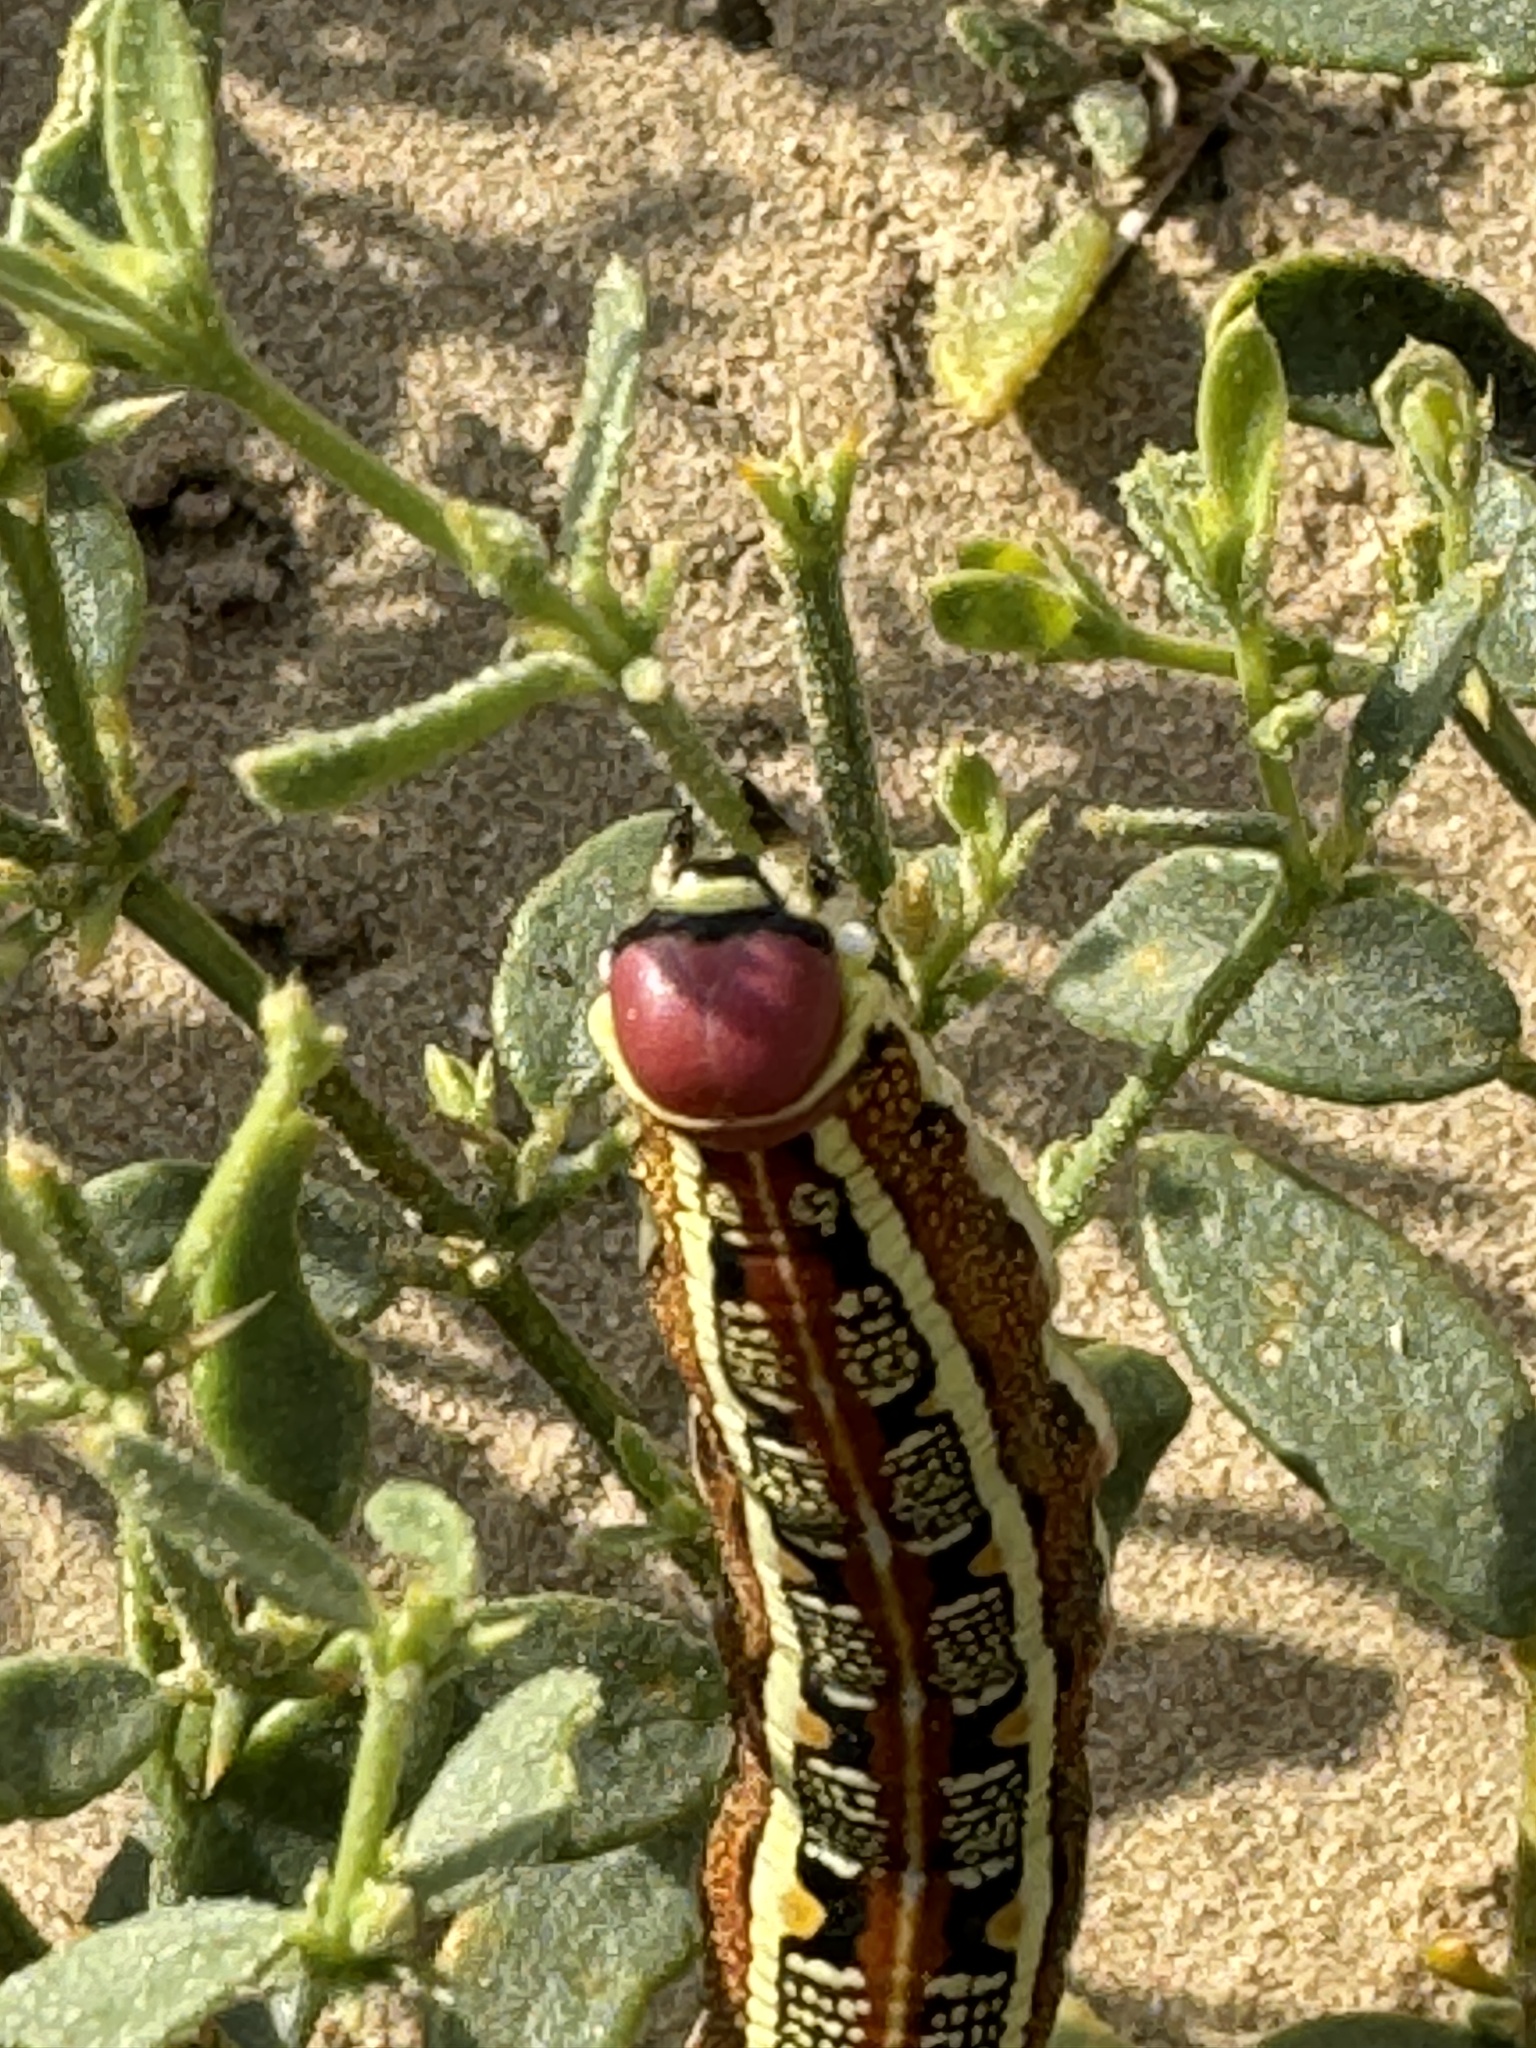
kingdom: Animalia
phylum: Arthropoda
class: Insecta
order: Lepidoptera
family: Sphingidae
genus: Hyles
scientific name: Hyles livornica
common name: Striped hawk-moth
